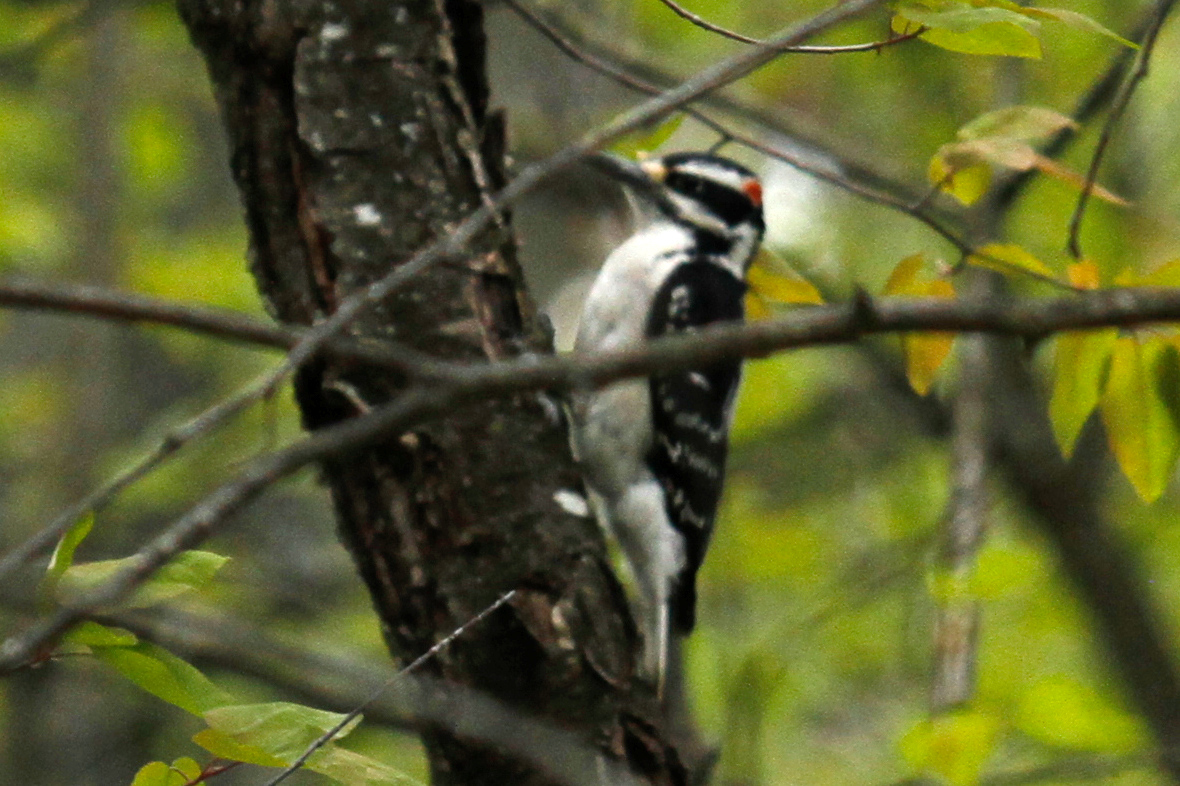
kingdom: Animalia
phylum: Chordata
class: Aves
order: Piciformes
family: Picidae
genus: Leuconotopicus
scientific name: Leuconotopicus villosus
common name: Hairy woodpecker
